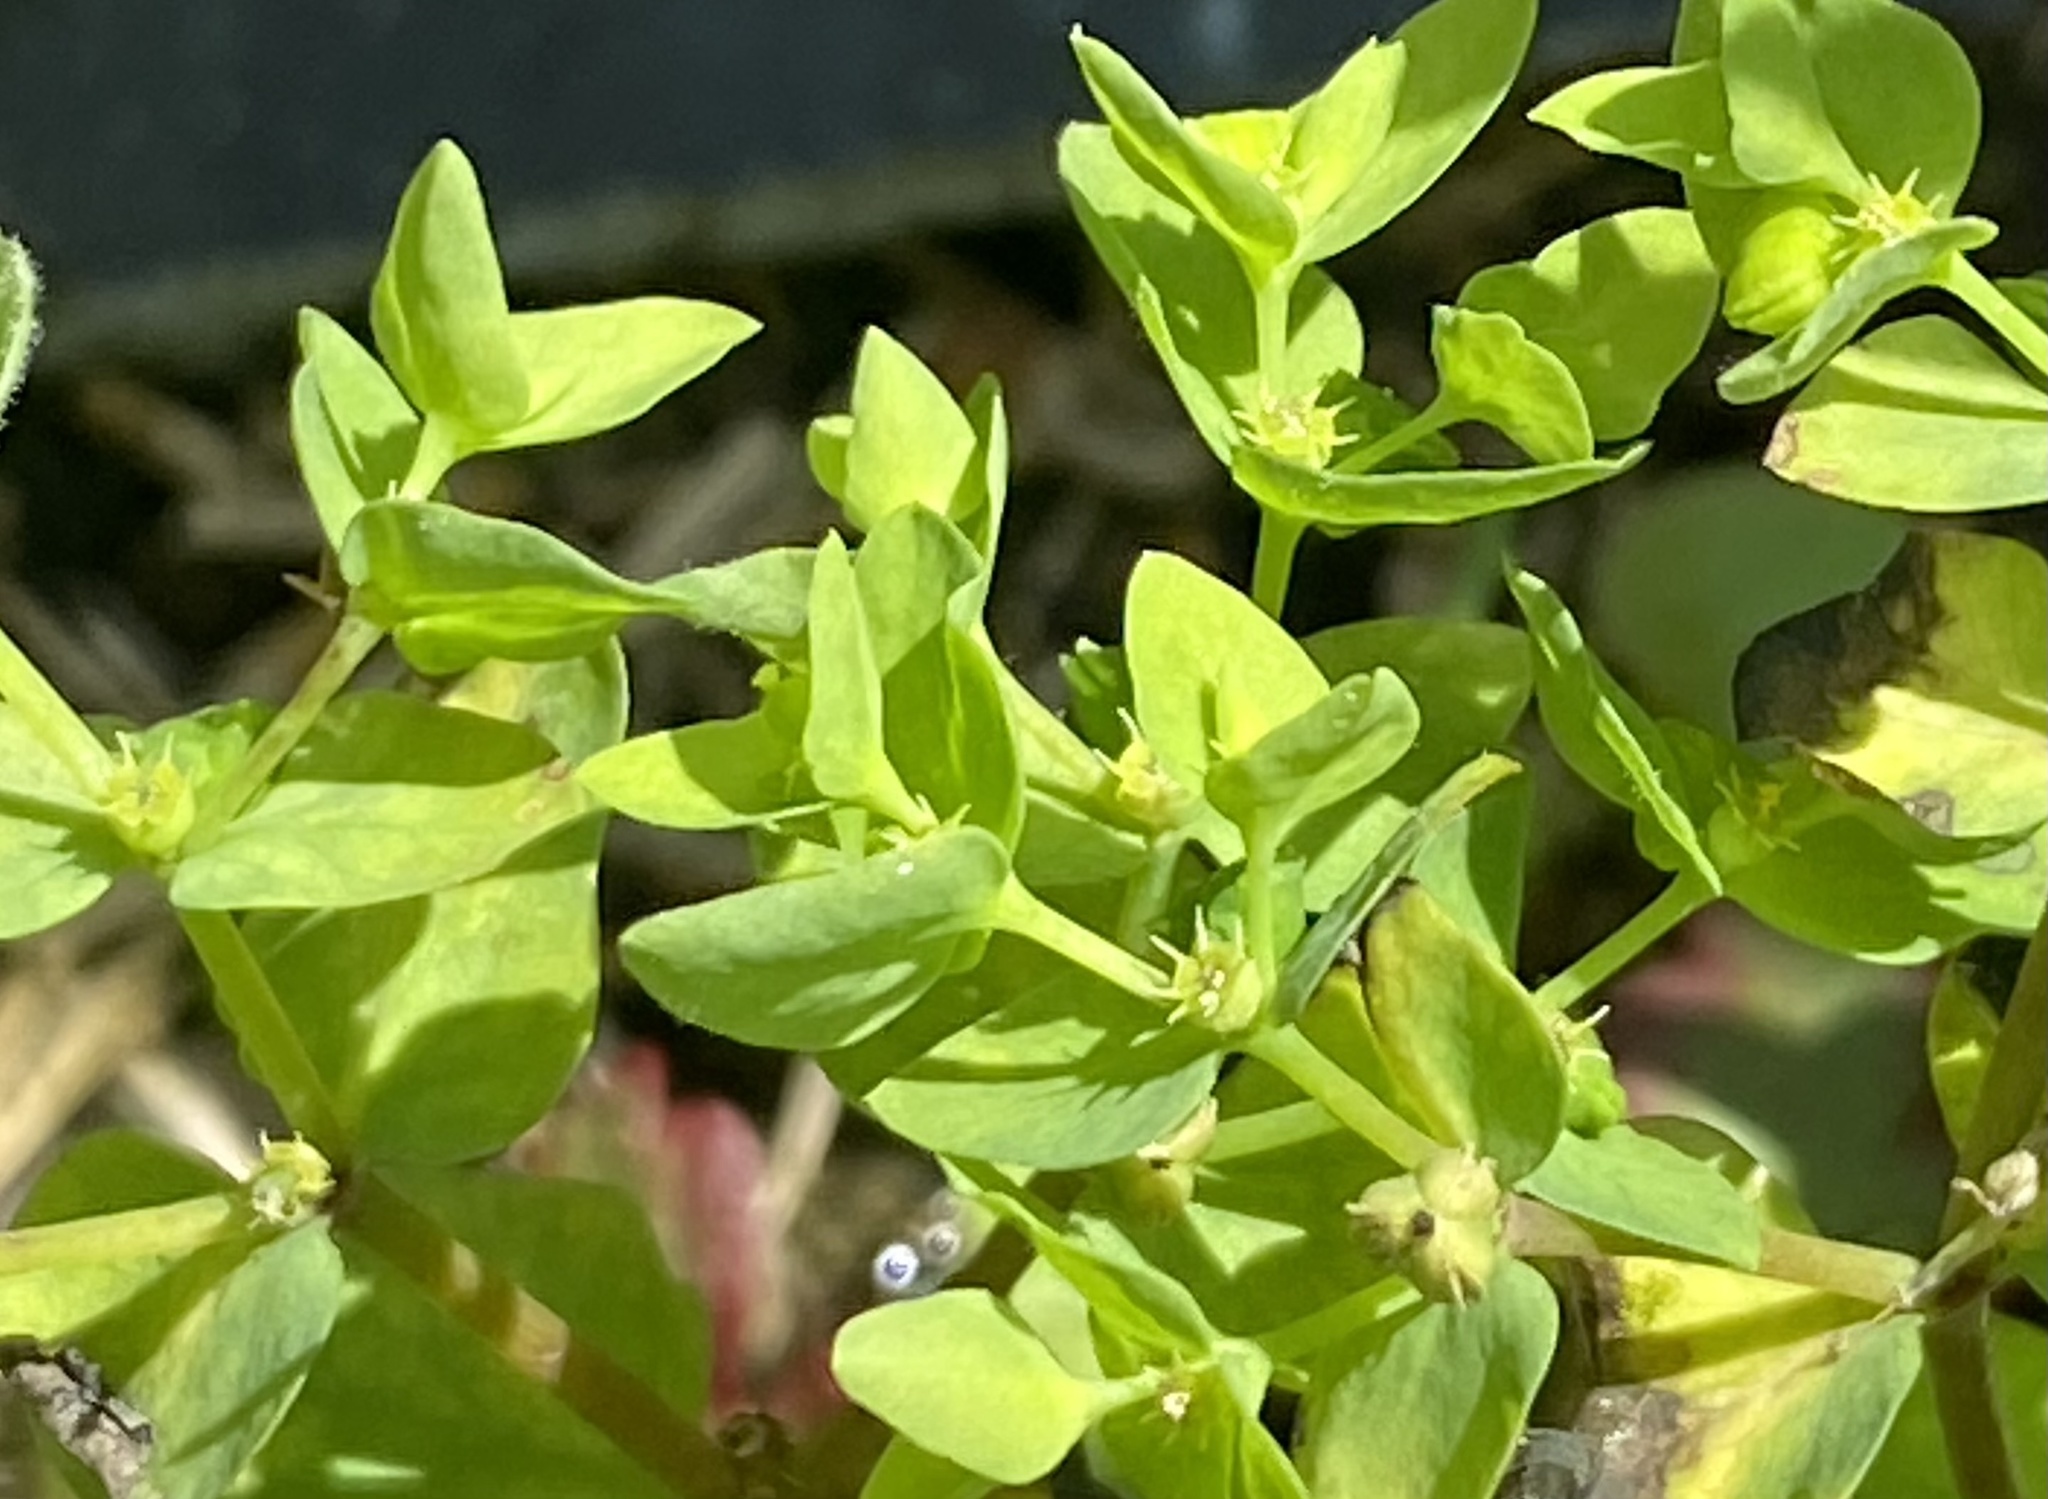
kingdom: Plantae
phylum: Tracheophyta
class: Magnoliopsida
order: Malpighiales
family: Euphorbiaceae
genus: Euphorbia
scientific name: Euphorbia peplus
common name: Petty spurge
